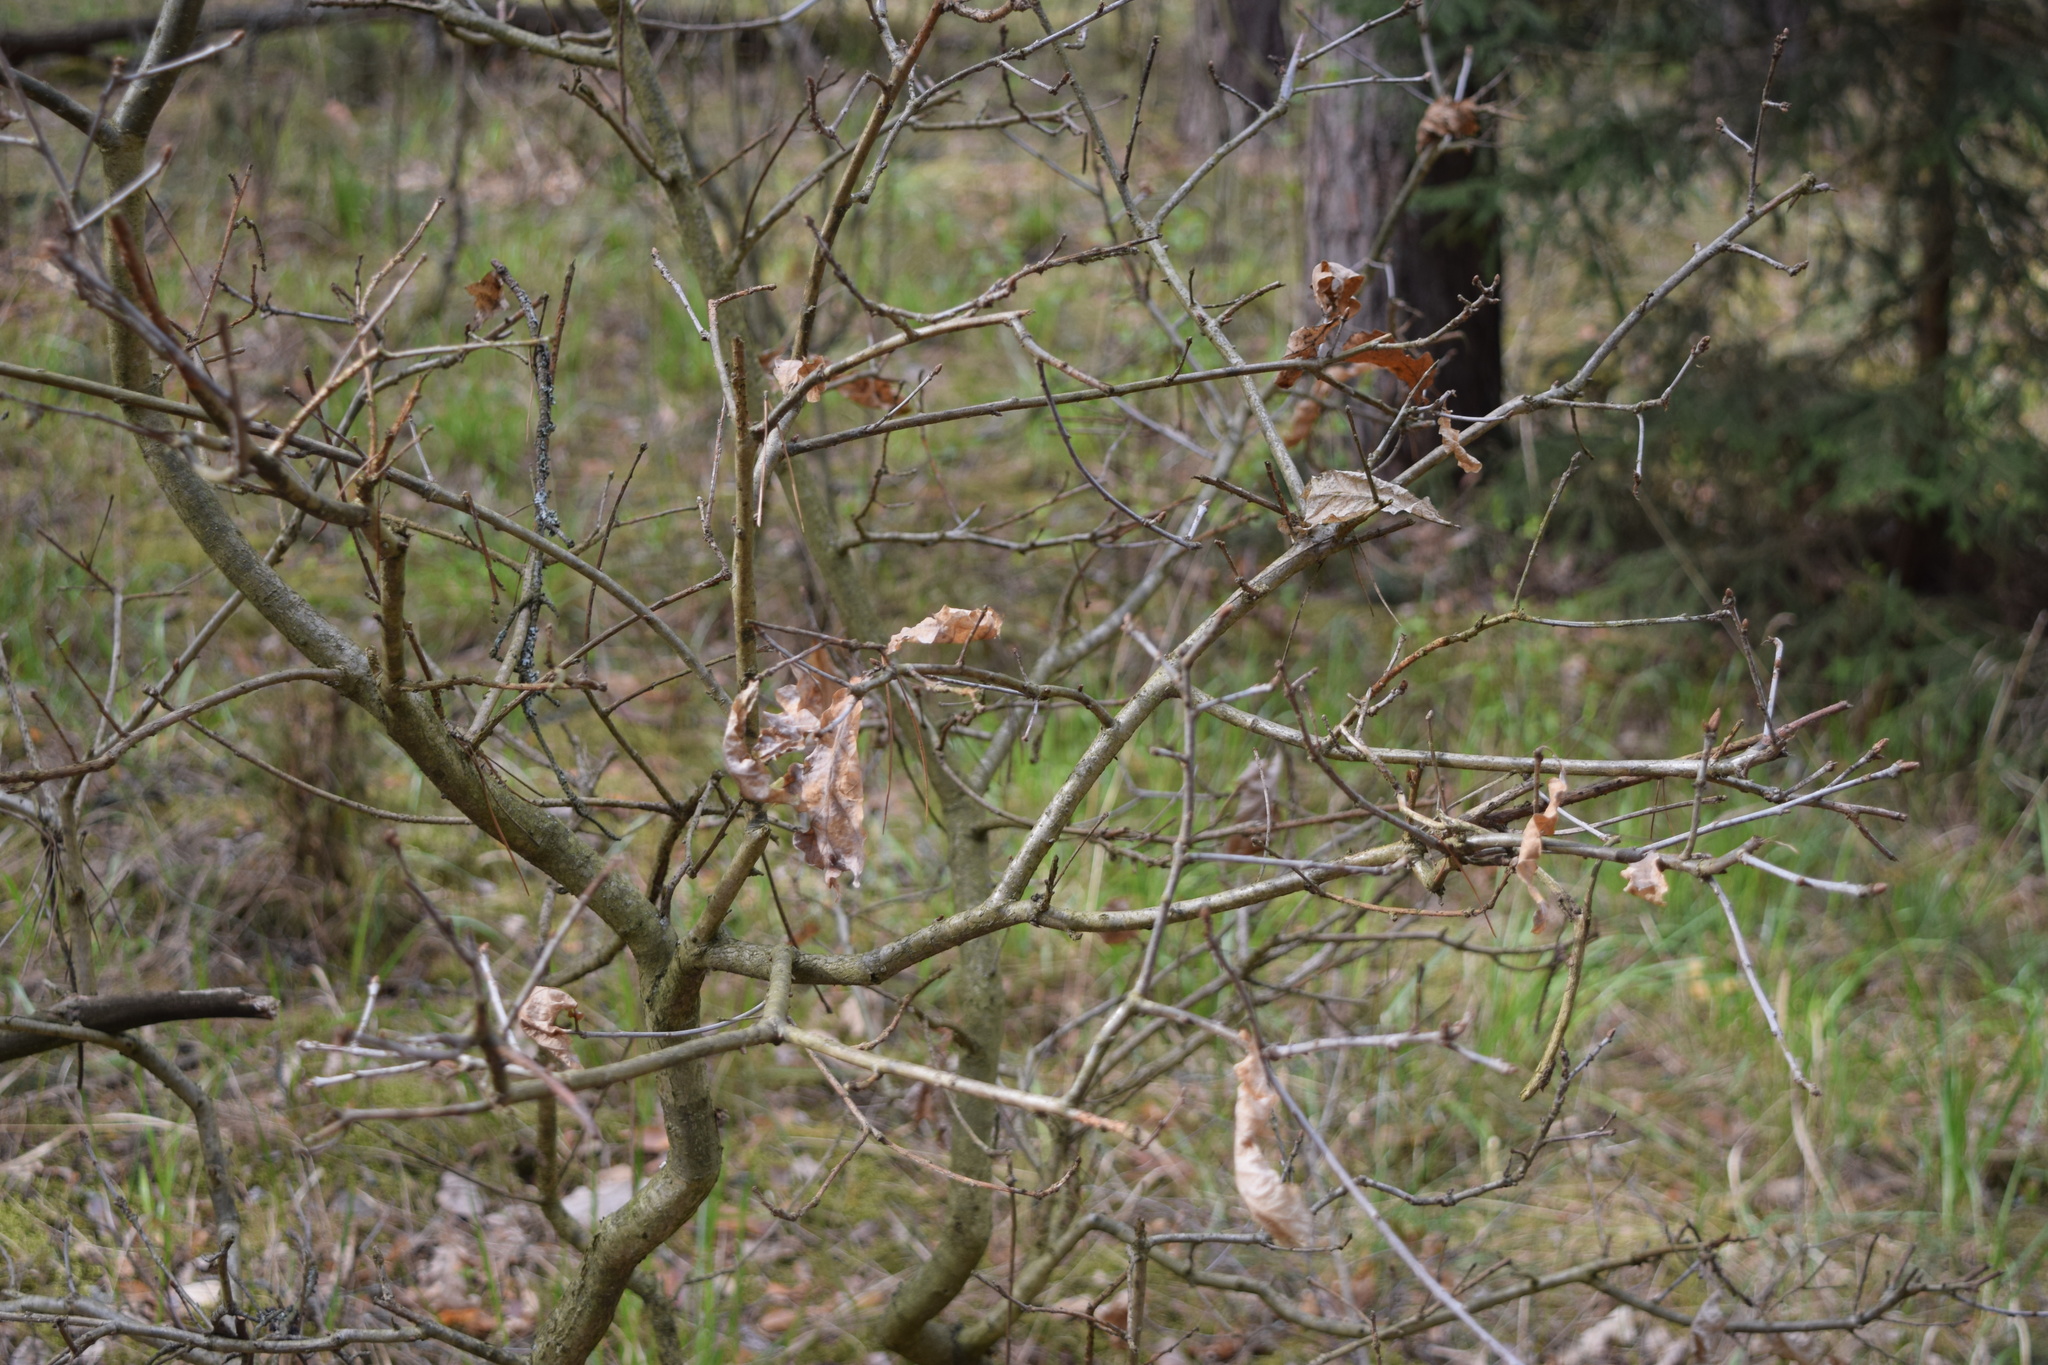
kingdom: Plantae
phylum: Tracheophyta
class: Magnoliopsida
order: Fagales
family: Fagaceae
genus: Quercus
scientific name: Quercus robur
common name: Pedunculate oak
